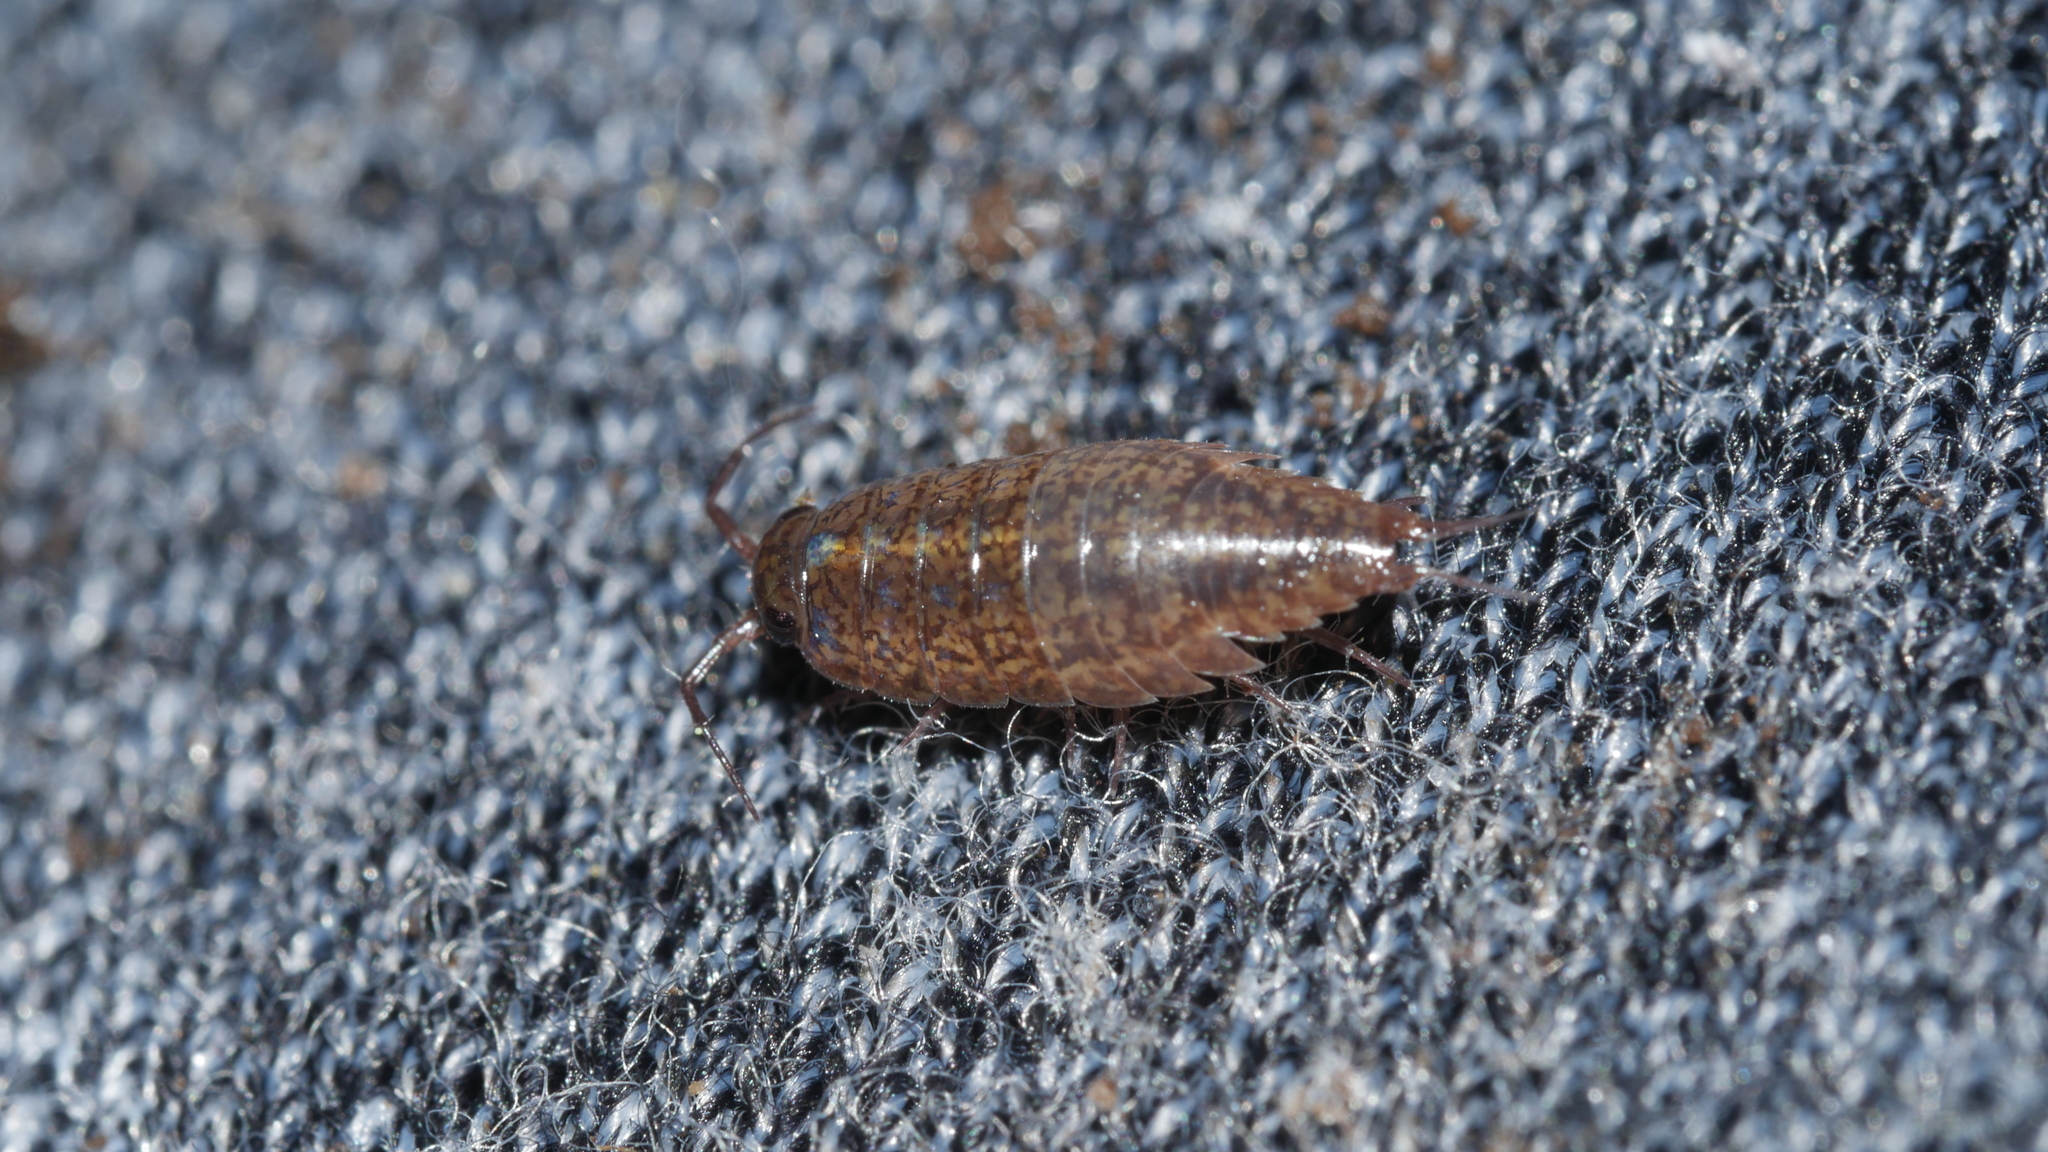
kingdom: Animalia
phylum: Arthropoda
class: Malacostraca
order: Isopoda
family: Ligiidae
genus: Ligidium
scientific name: Ligidium elrodii
